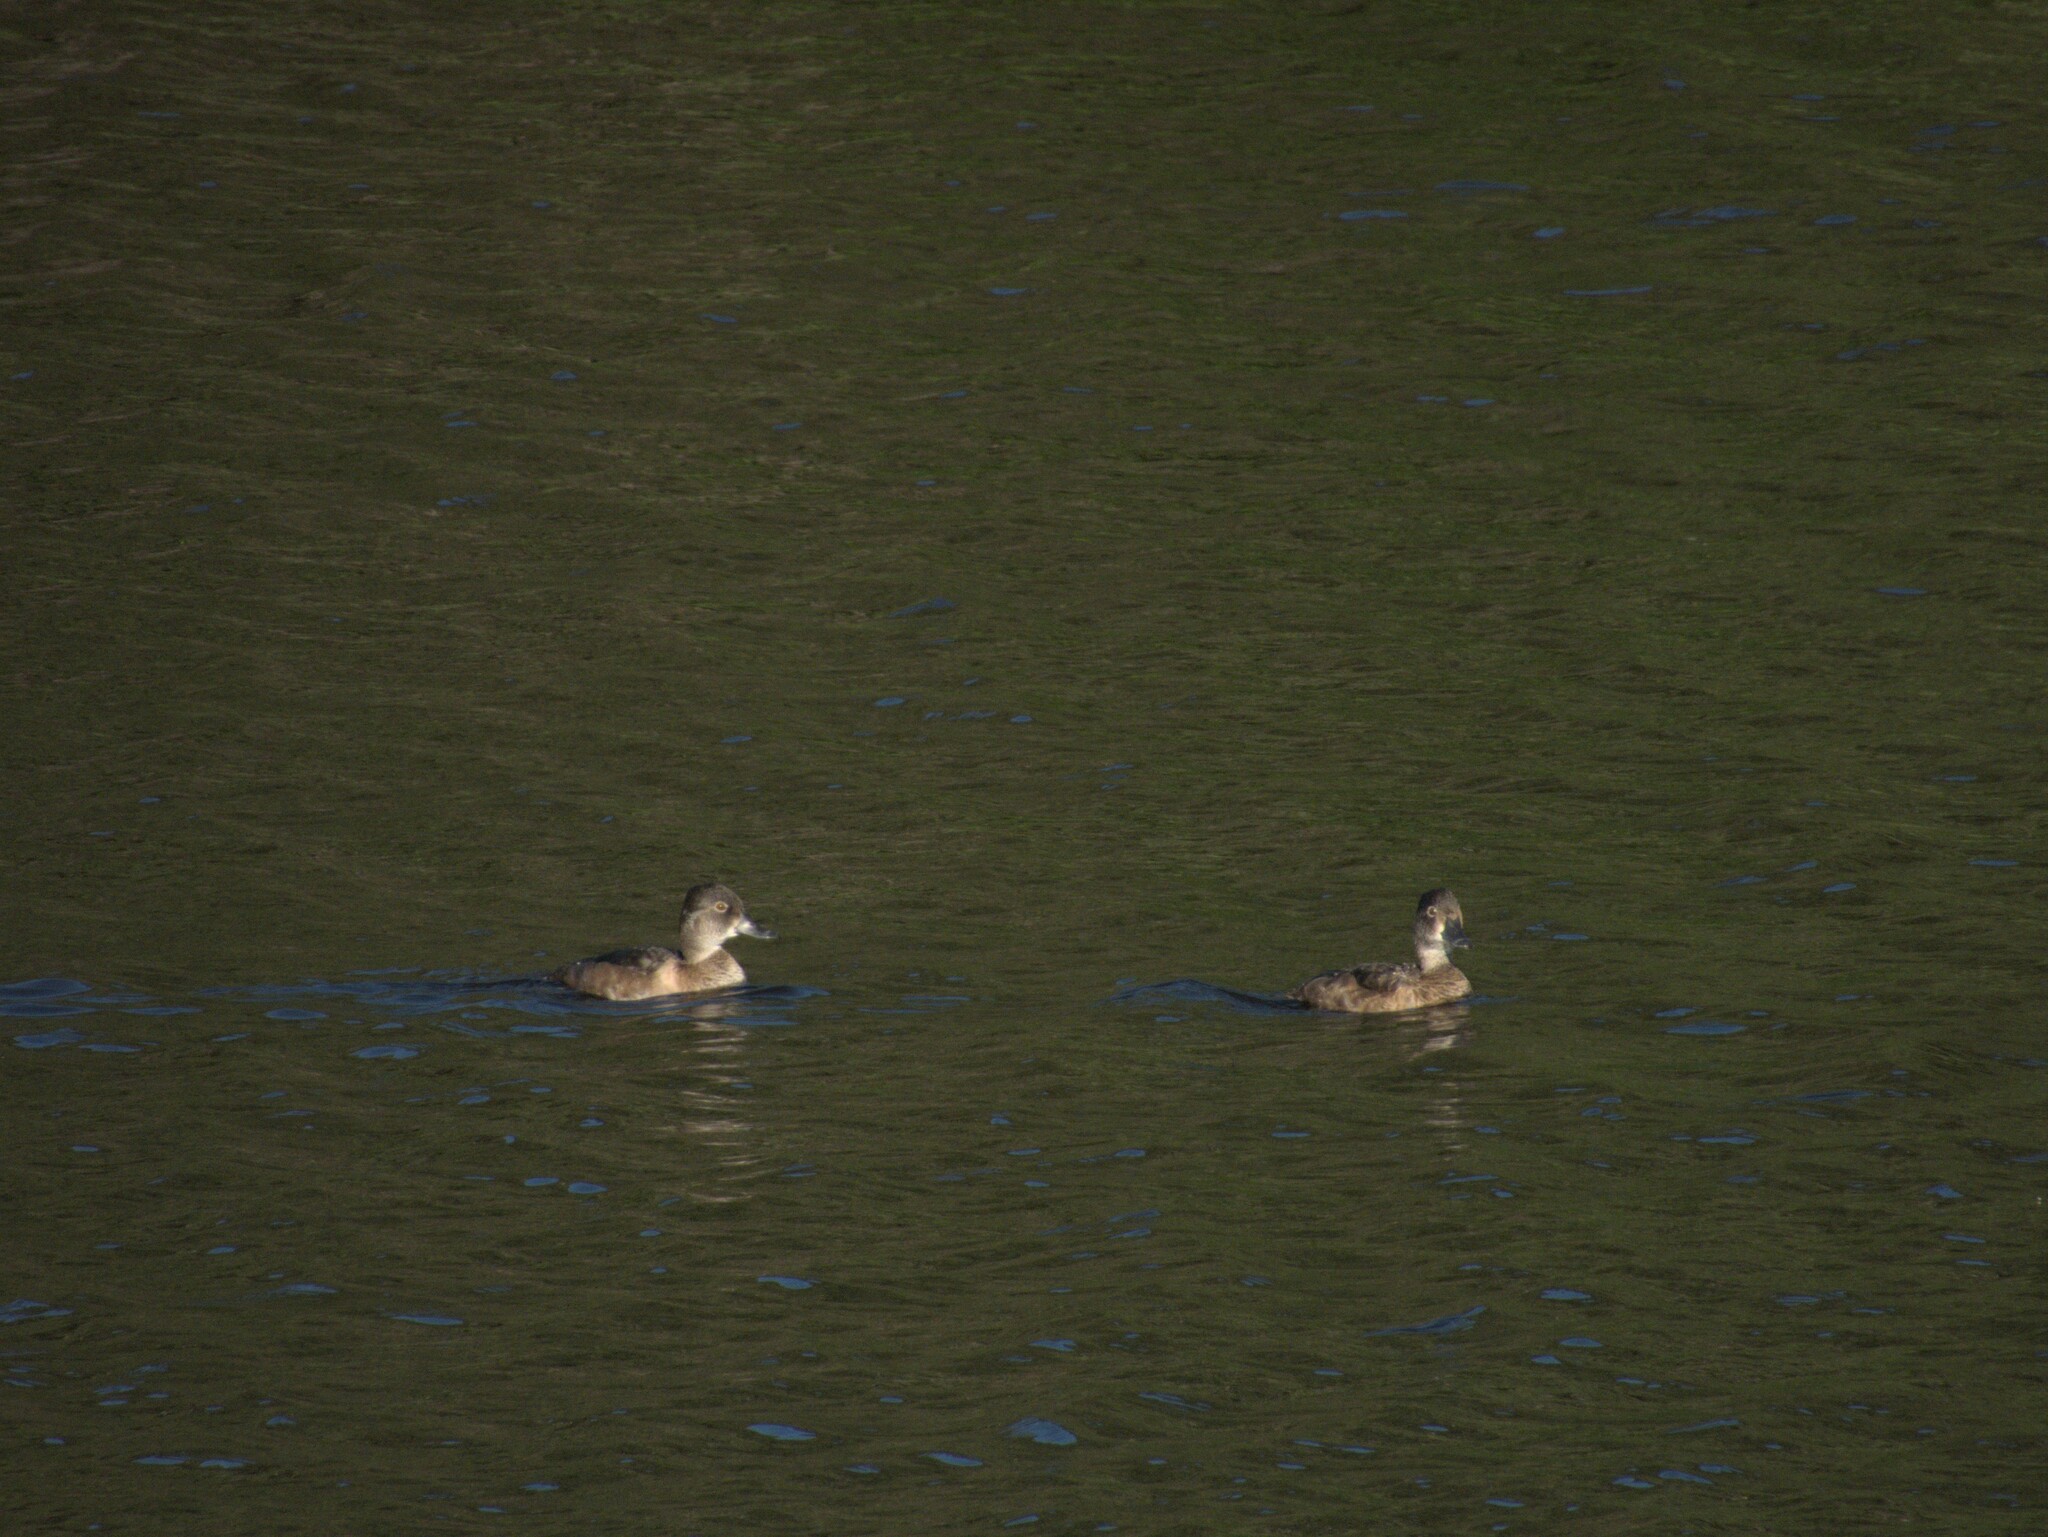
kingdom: Animalia
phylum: Chordata
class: Aves
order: Anseriformes
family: Anatidae
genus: Aythya
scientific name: Aythya collaris
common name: Ring-necked duck
